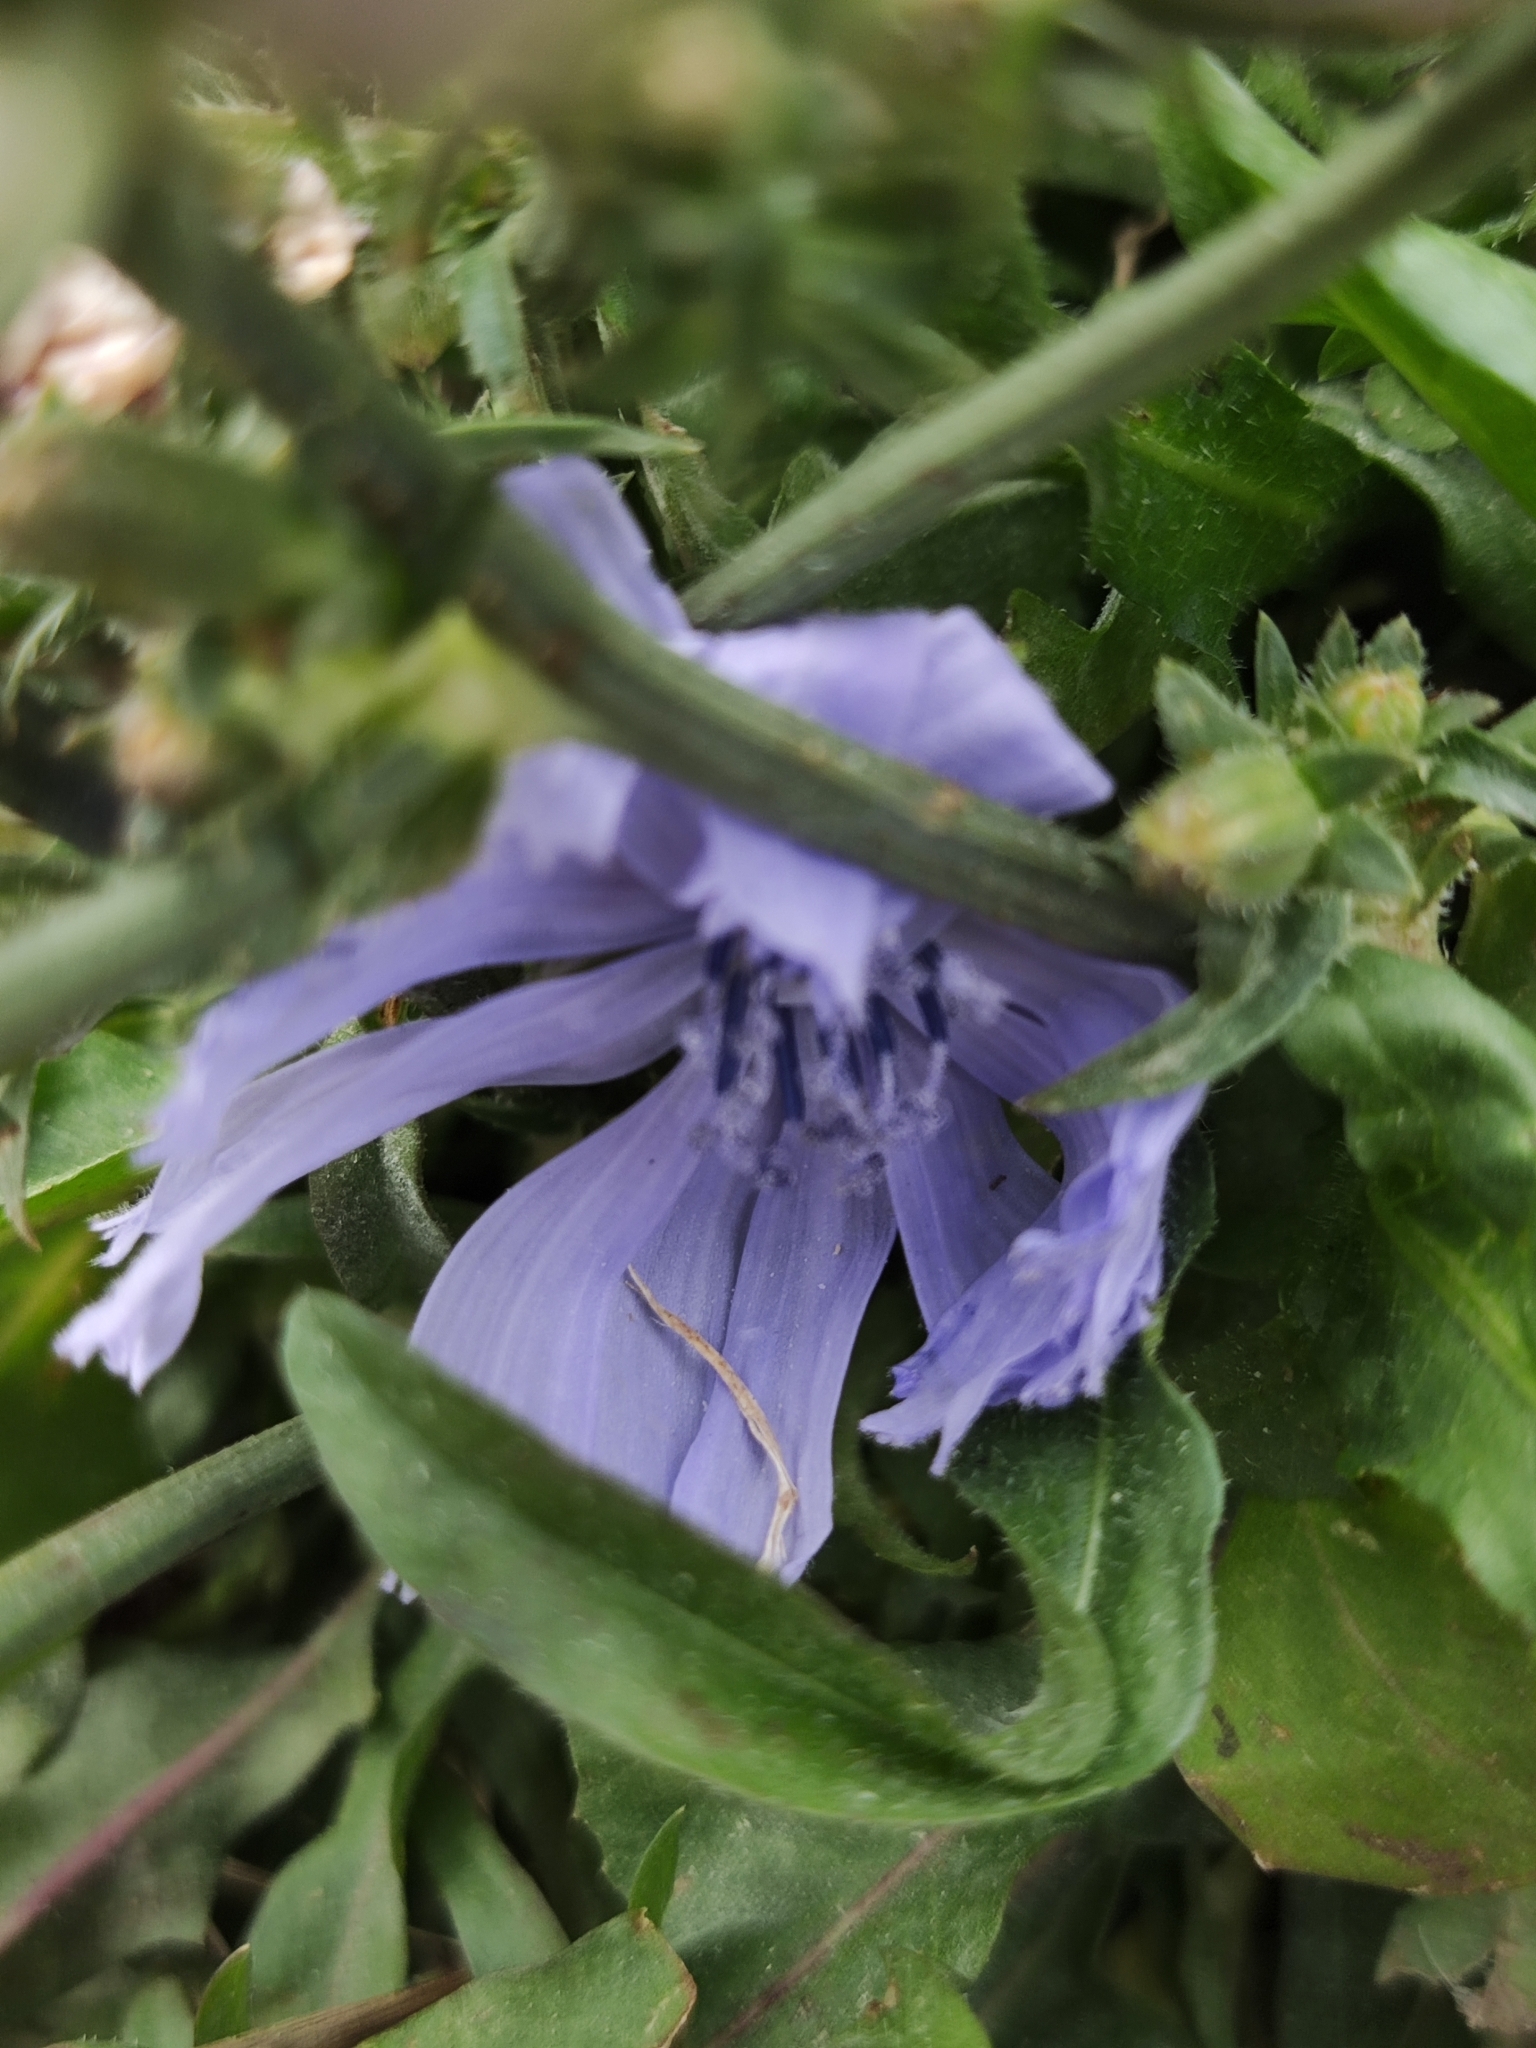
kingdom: Plantae
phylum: Tracheophyta
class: Magnoliopsida
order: Asterales
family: Asteraceae
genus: Cichorium
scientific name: Cichorium intybus
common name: Chicory
